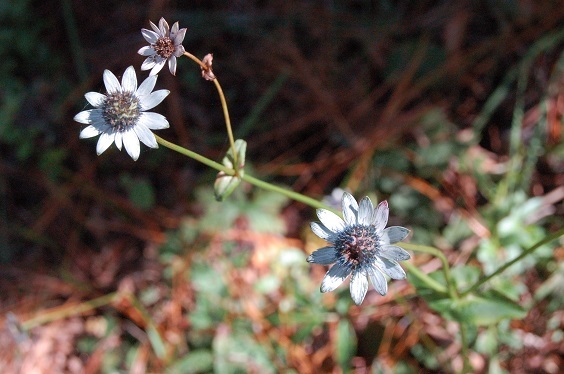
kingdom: Plantae
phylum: Tracheophyta
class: Magnoliopsida
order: Apiales
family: Apiaceae
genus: Eryngium
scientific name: Eryngium scaposum
